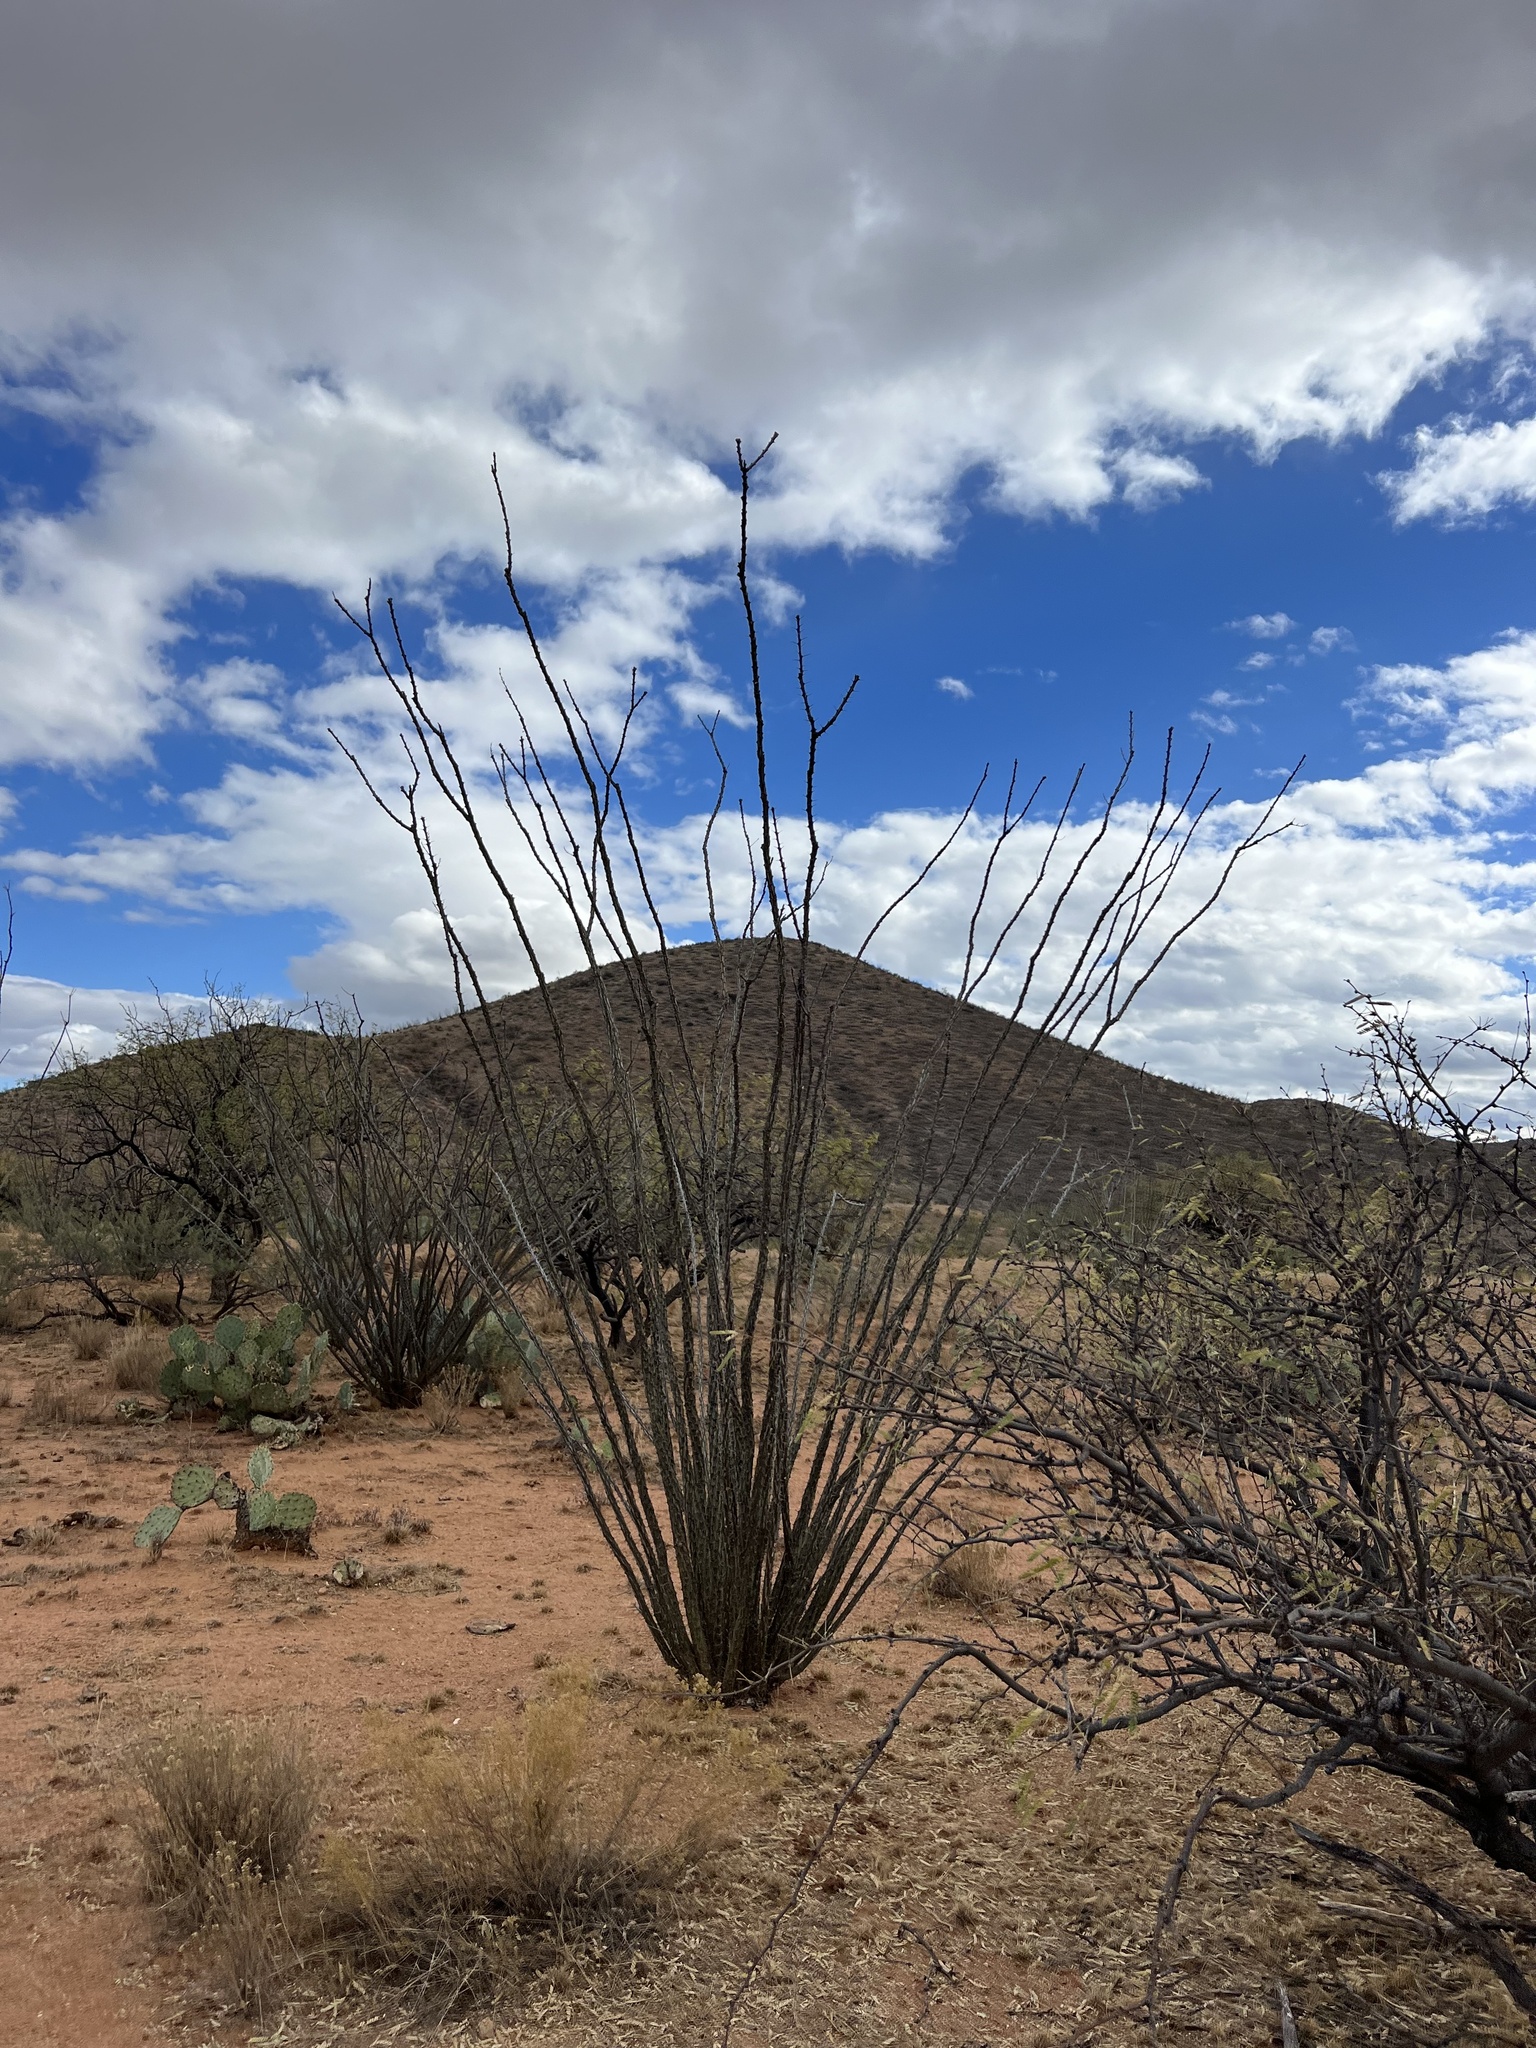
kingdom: Plantae
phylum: Tracheophyta
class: Magnoliopsida
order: Ericales
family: Fouquieriaceae
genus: Fouquieria
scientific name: Fouquieria splendens
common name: Vine-cactus
